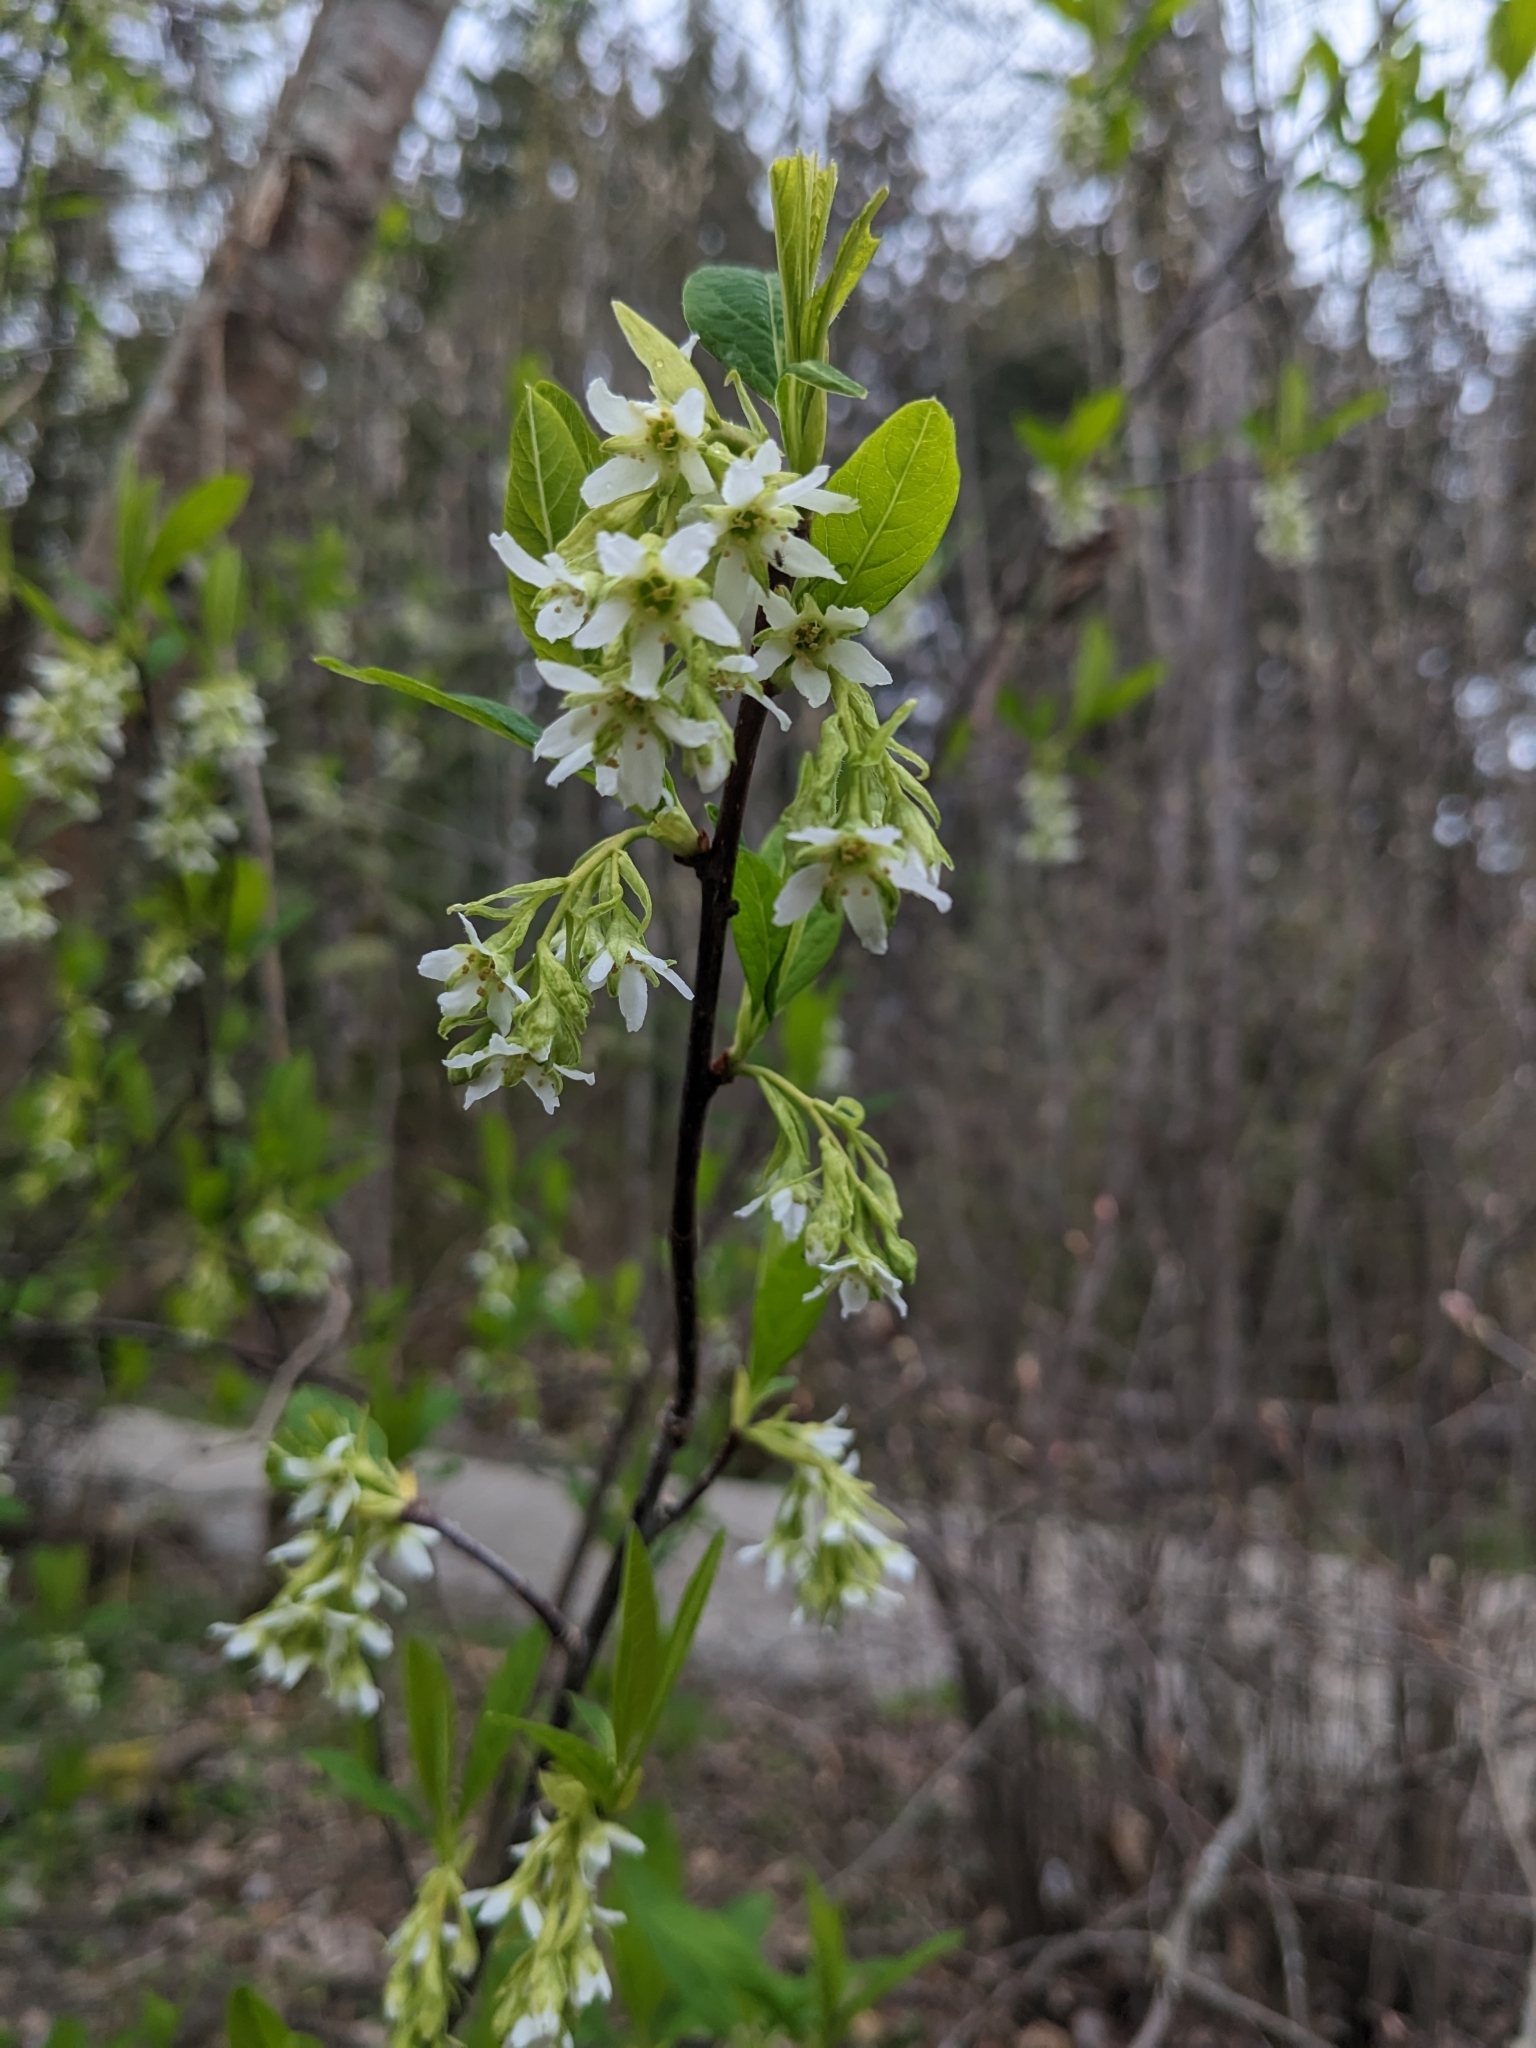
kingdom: Plantae
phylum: Tracheophyta
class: Magnoliopsida
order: Rosales
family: Rosaceae
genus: Oemleria
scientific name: Oemleria cerasiformis
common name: Osoberry
